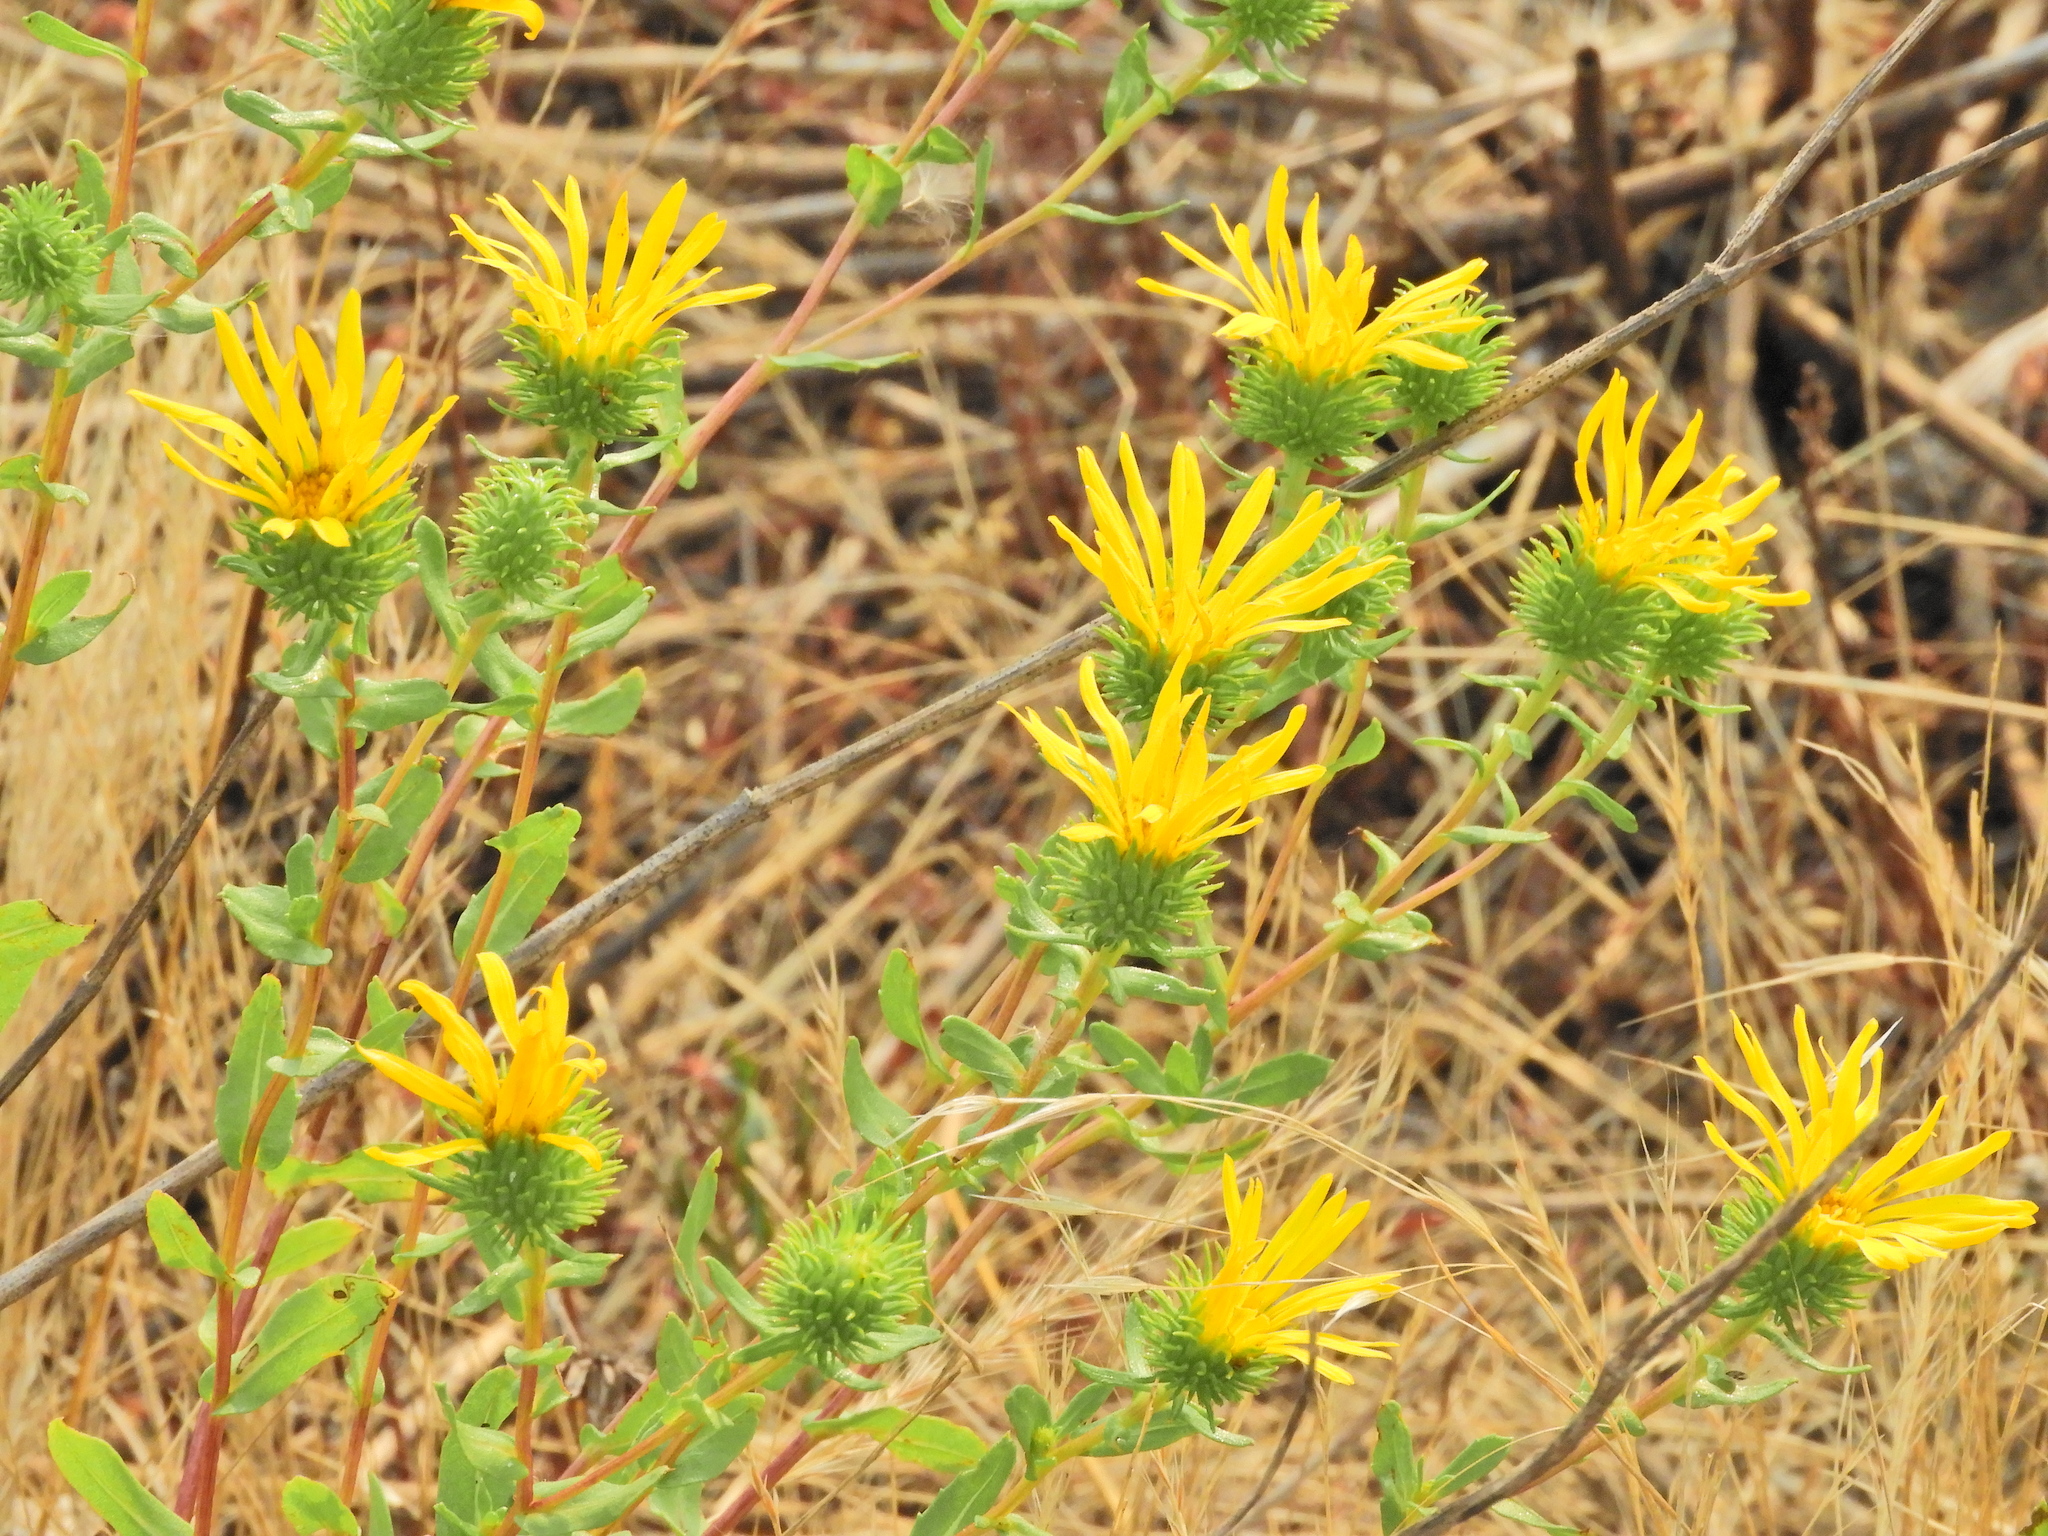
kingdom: Plantae
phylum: Tracheophyta
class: Magnoliopsida
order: Asterales
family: Asteraceae
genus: Grindelia
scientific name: Grindelia hirsutula
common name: Hairy gumweed
